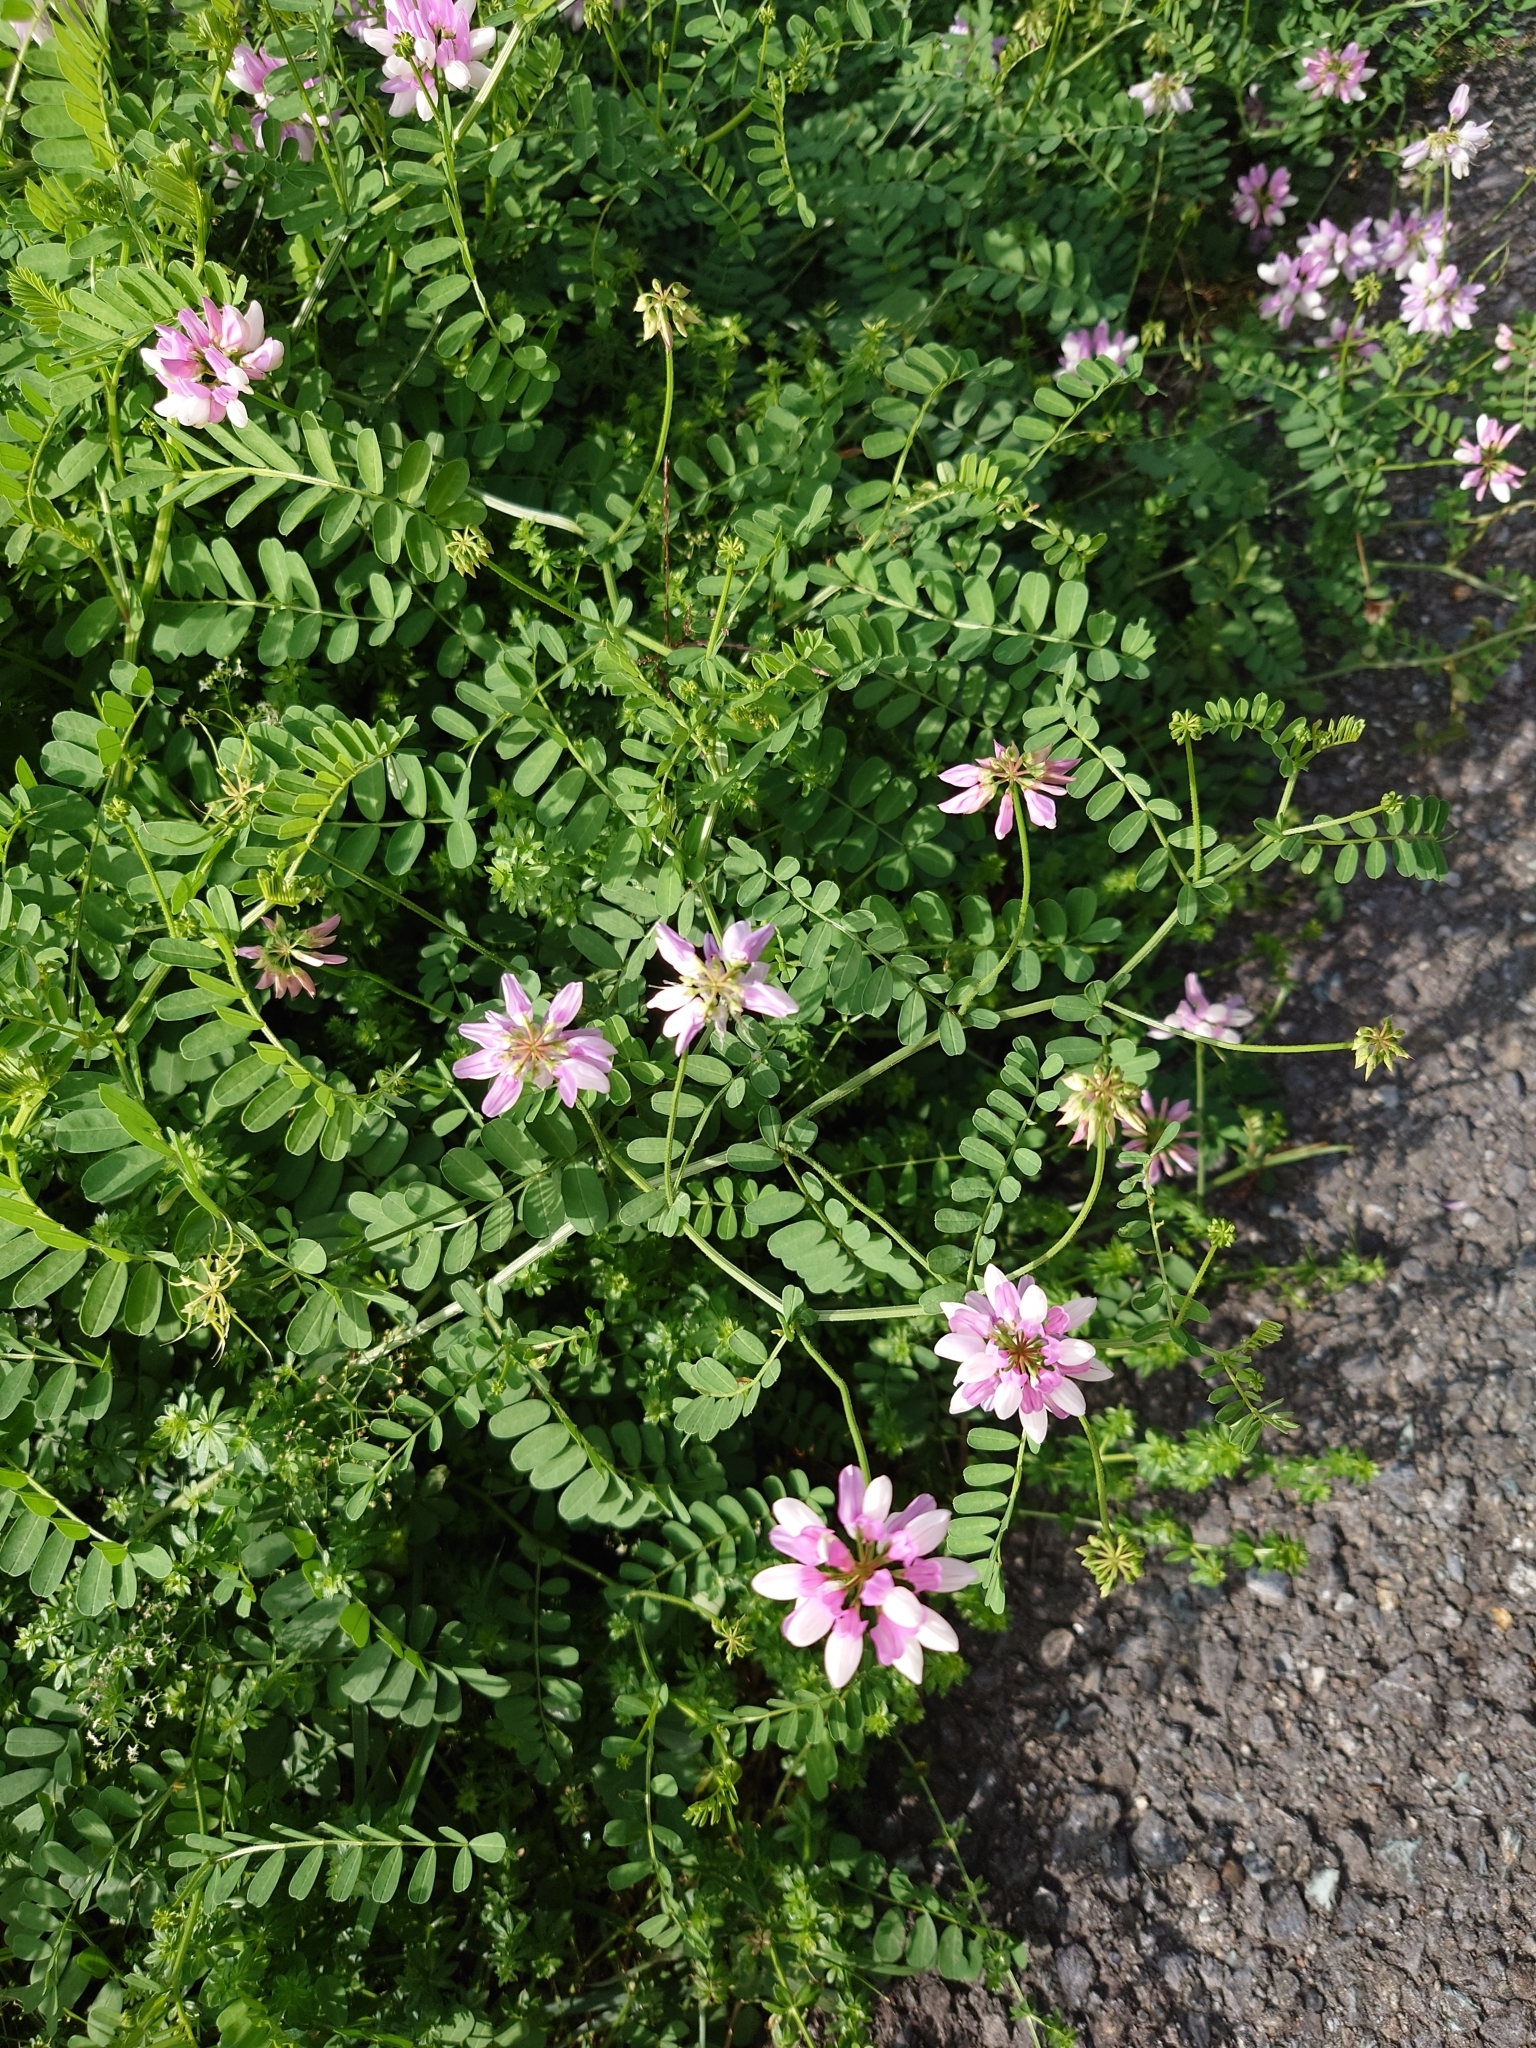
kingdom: Plantae
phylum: Tracheophyta
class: Magnoliopsida
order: Fabales
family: Fabaceae
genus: Coronilla
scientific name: Coronilla varia
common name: Crownvetch
